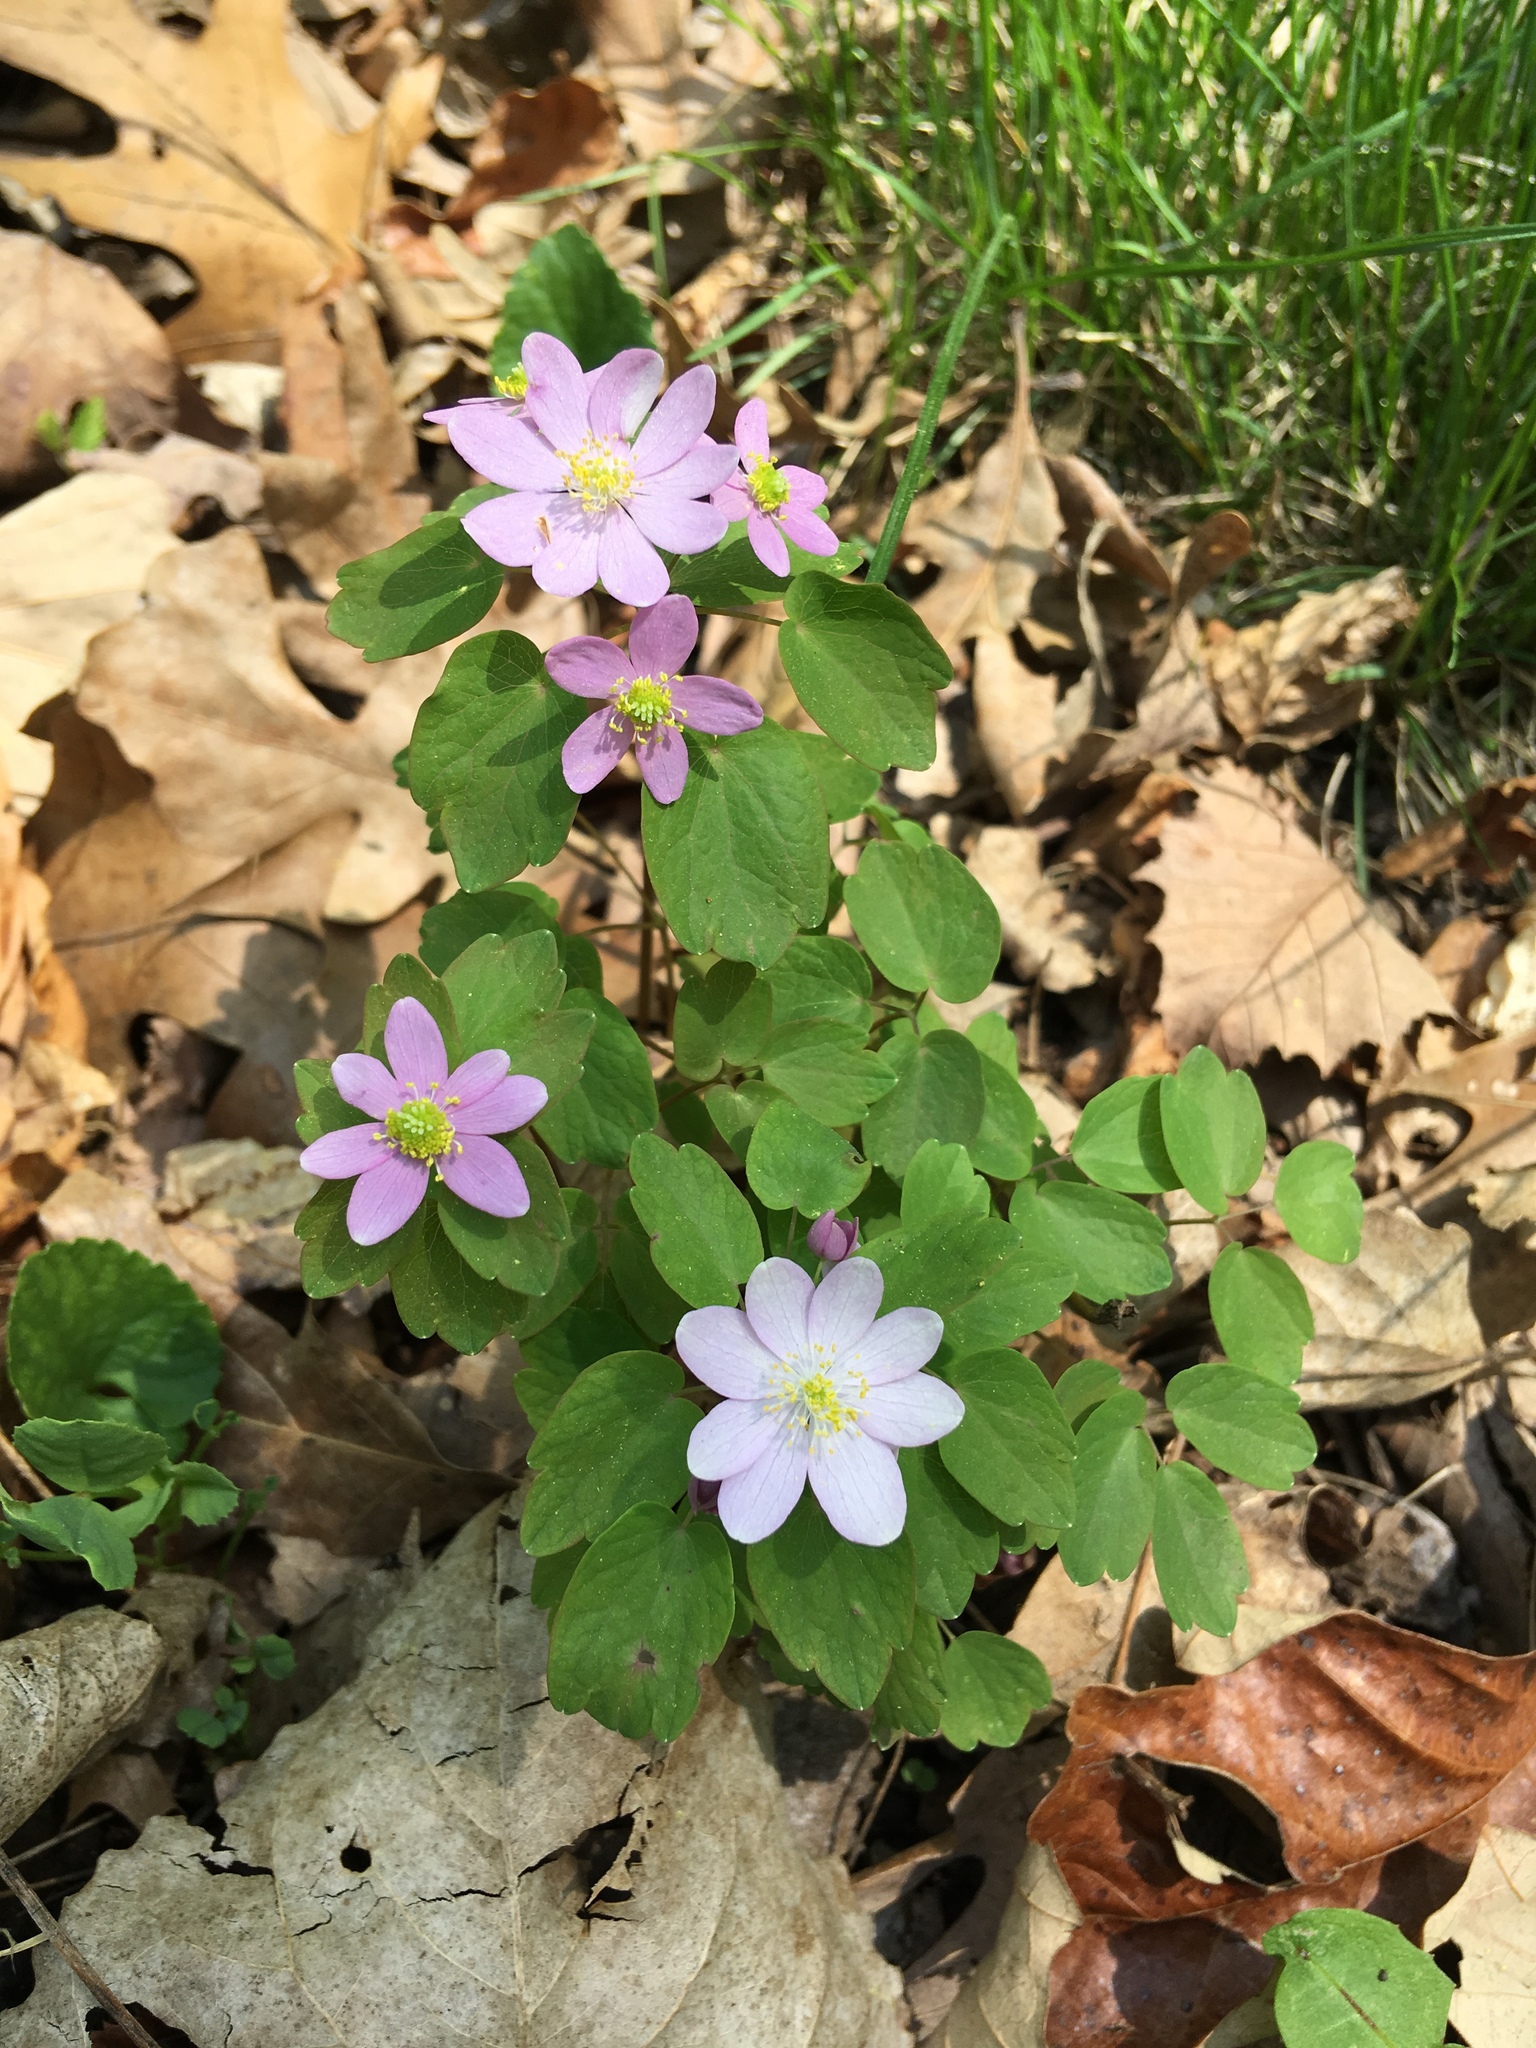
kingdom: Plantae
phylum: Tracheophyta
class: Magnoliopsida
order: Ranunculales
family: Ranunculaceae
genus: Thalictrum
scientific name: Thalictrum thalictroides
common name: Rue-anemone
